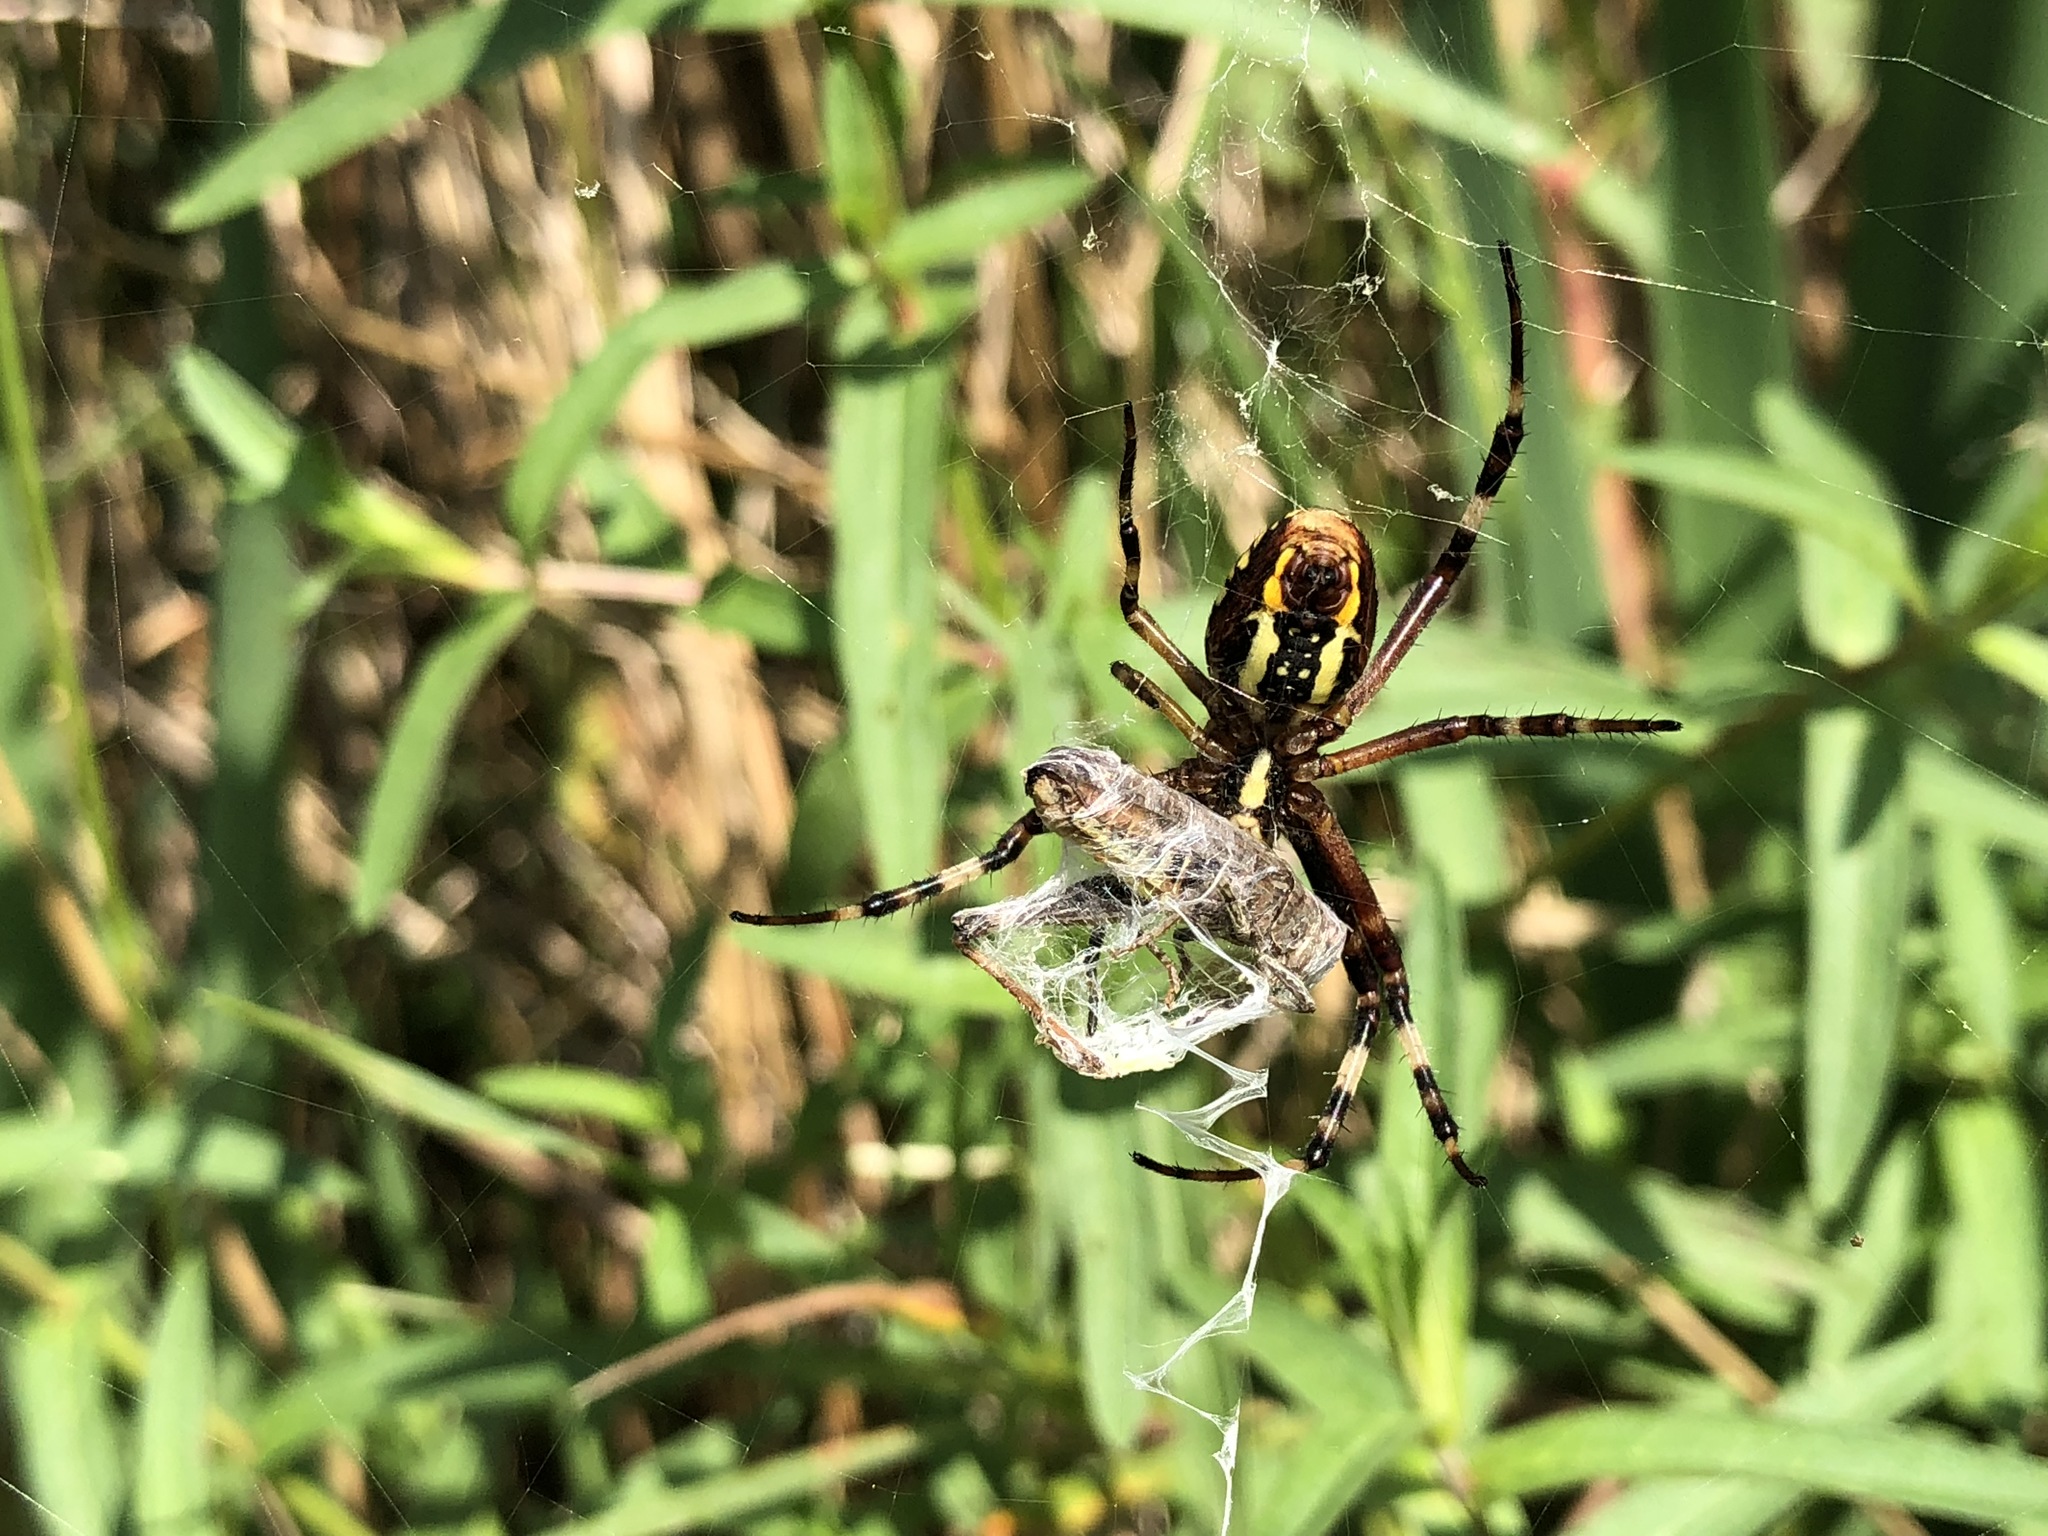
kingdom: Animalia
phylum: Arthropoda
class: Arachnida
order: Araneae
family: Araneidae
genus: Argiope
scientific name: Argiope bruennichi
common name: Wasp spider
